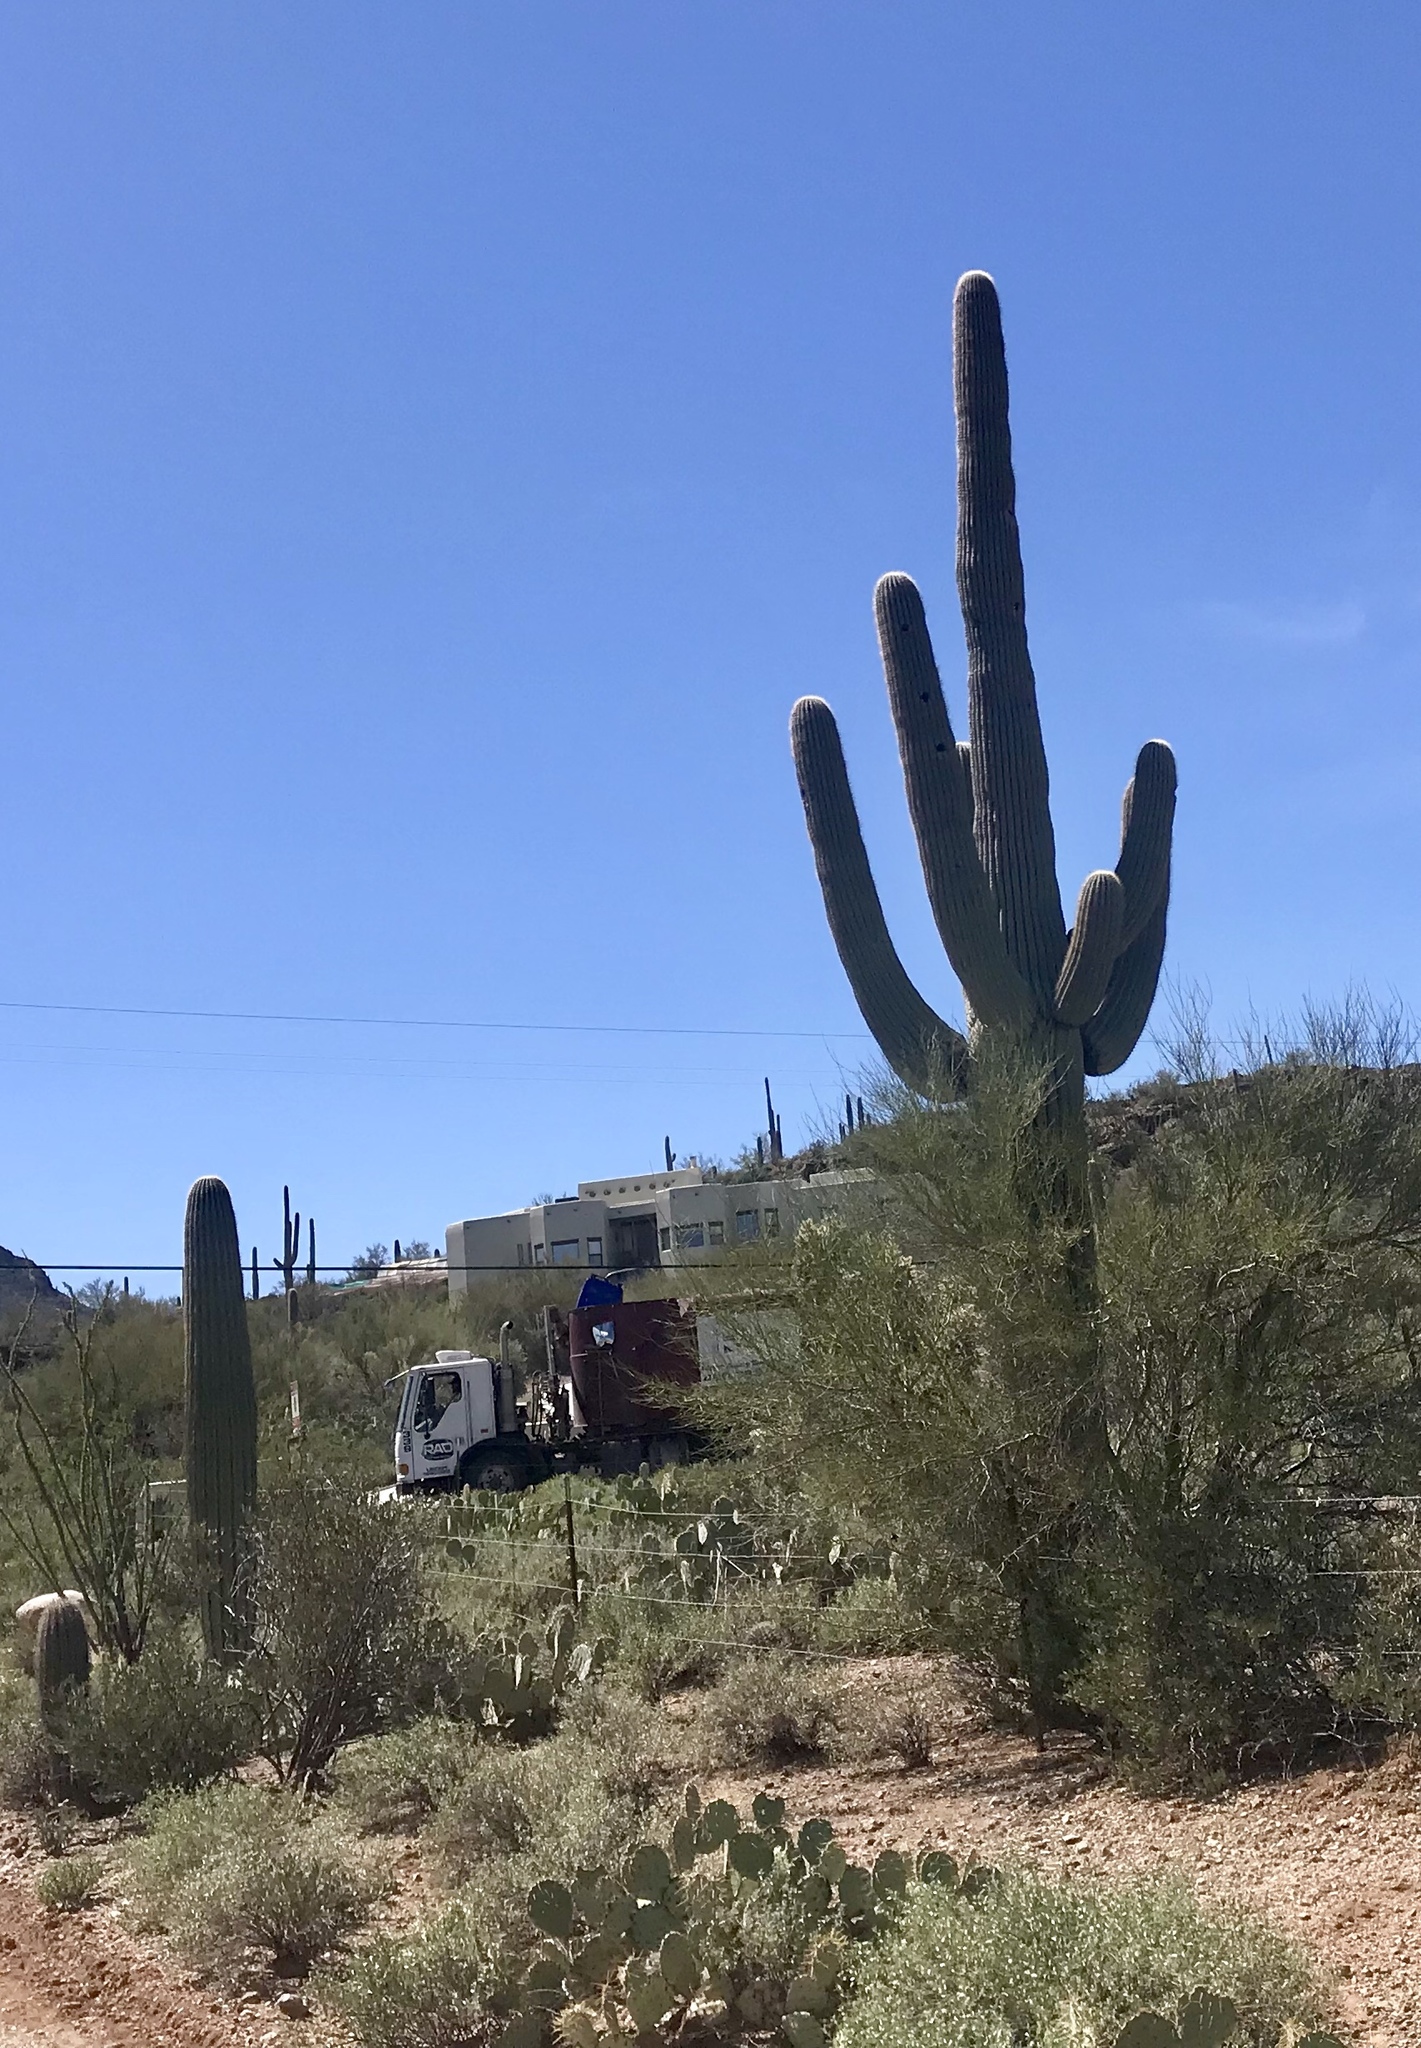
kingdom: Plantae
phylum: Tracheophyta
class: Magnoliopsida
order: Caryophyllales
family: Cactaceae
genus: Carnegiea
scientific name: Carnegiea gigantea
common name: Saguaro
